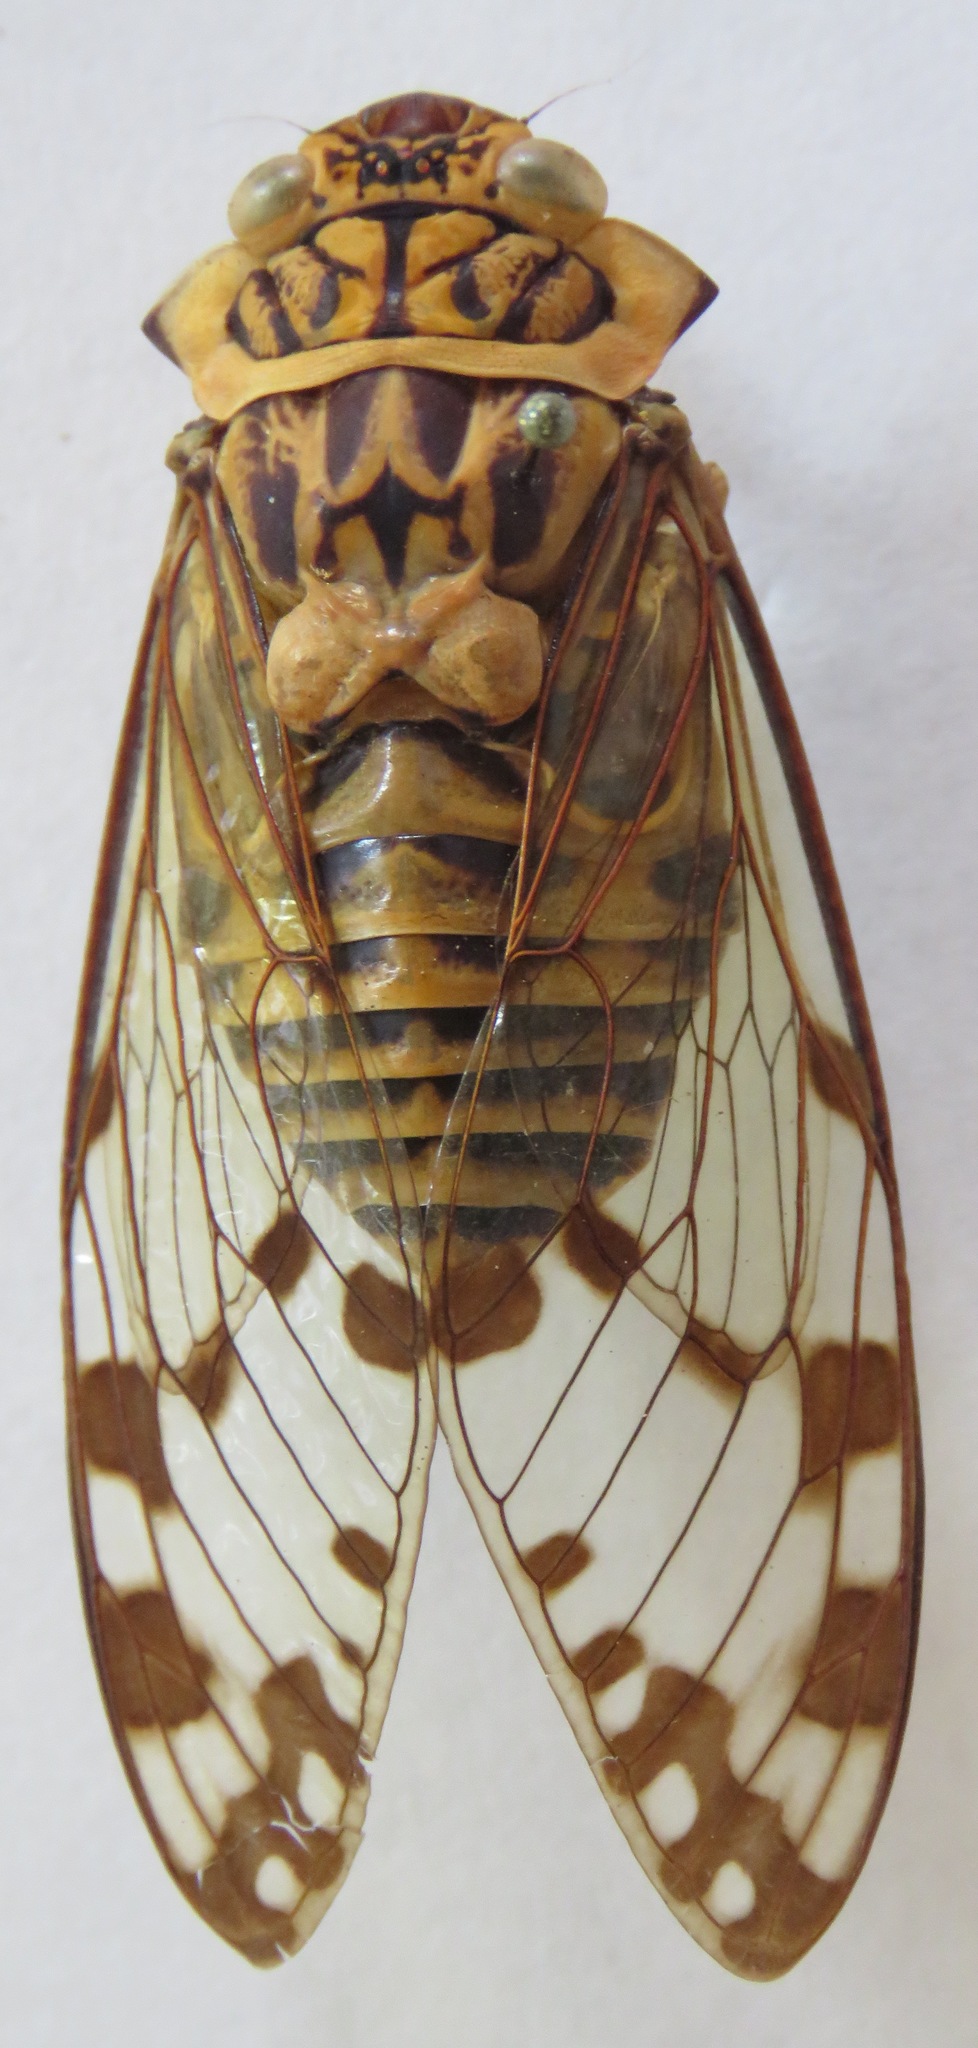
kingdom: Animalia
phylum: Arthropoda
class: Insecta
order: Hemiptera
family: Cicadidae
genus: Zammara
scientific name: Zammara smaragdina
